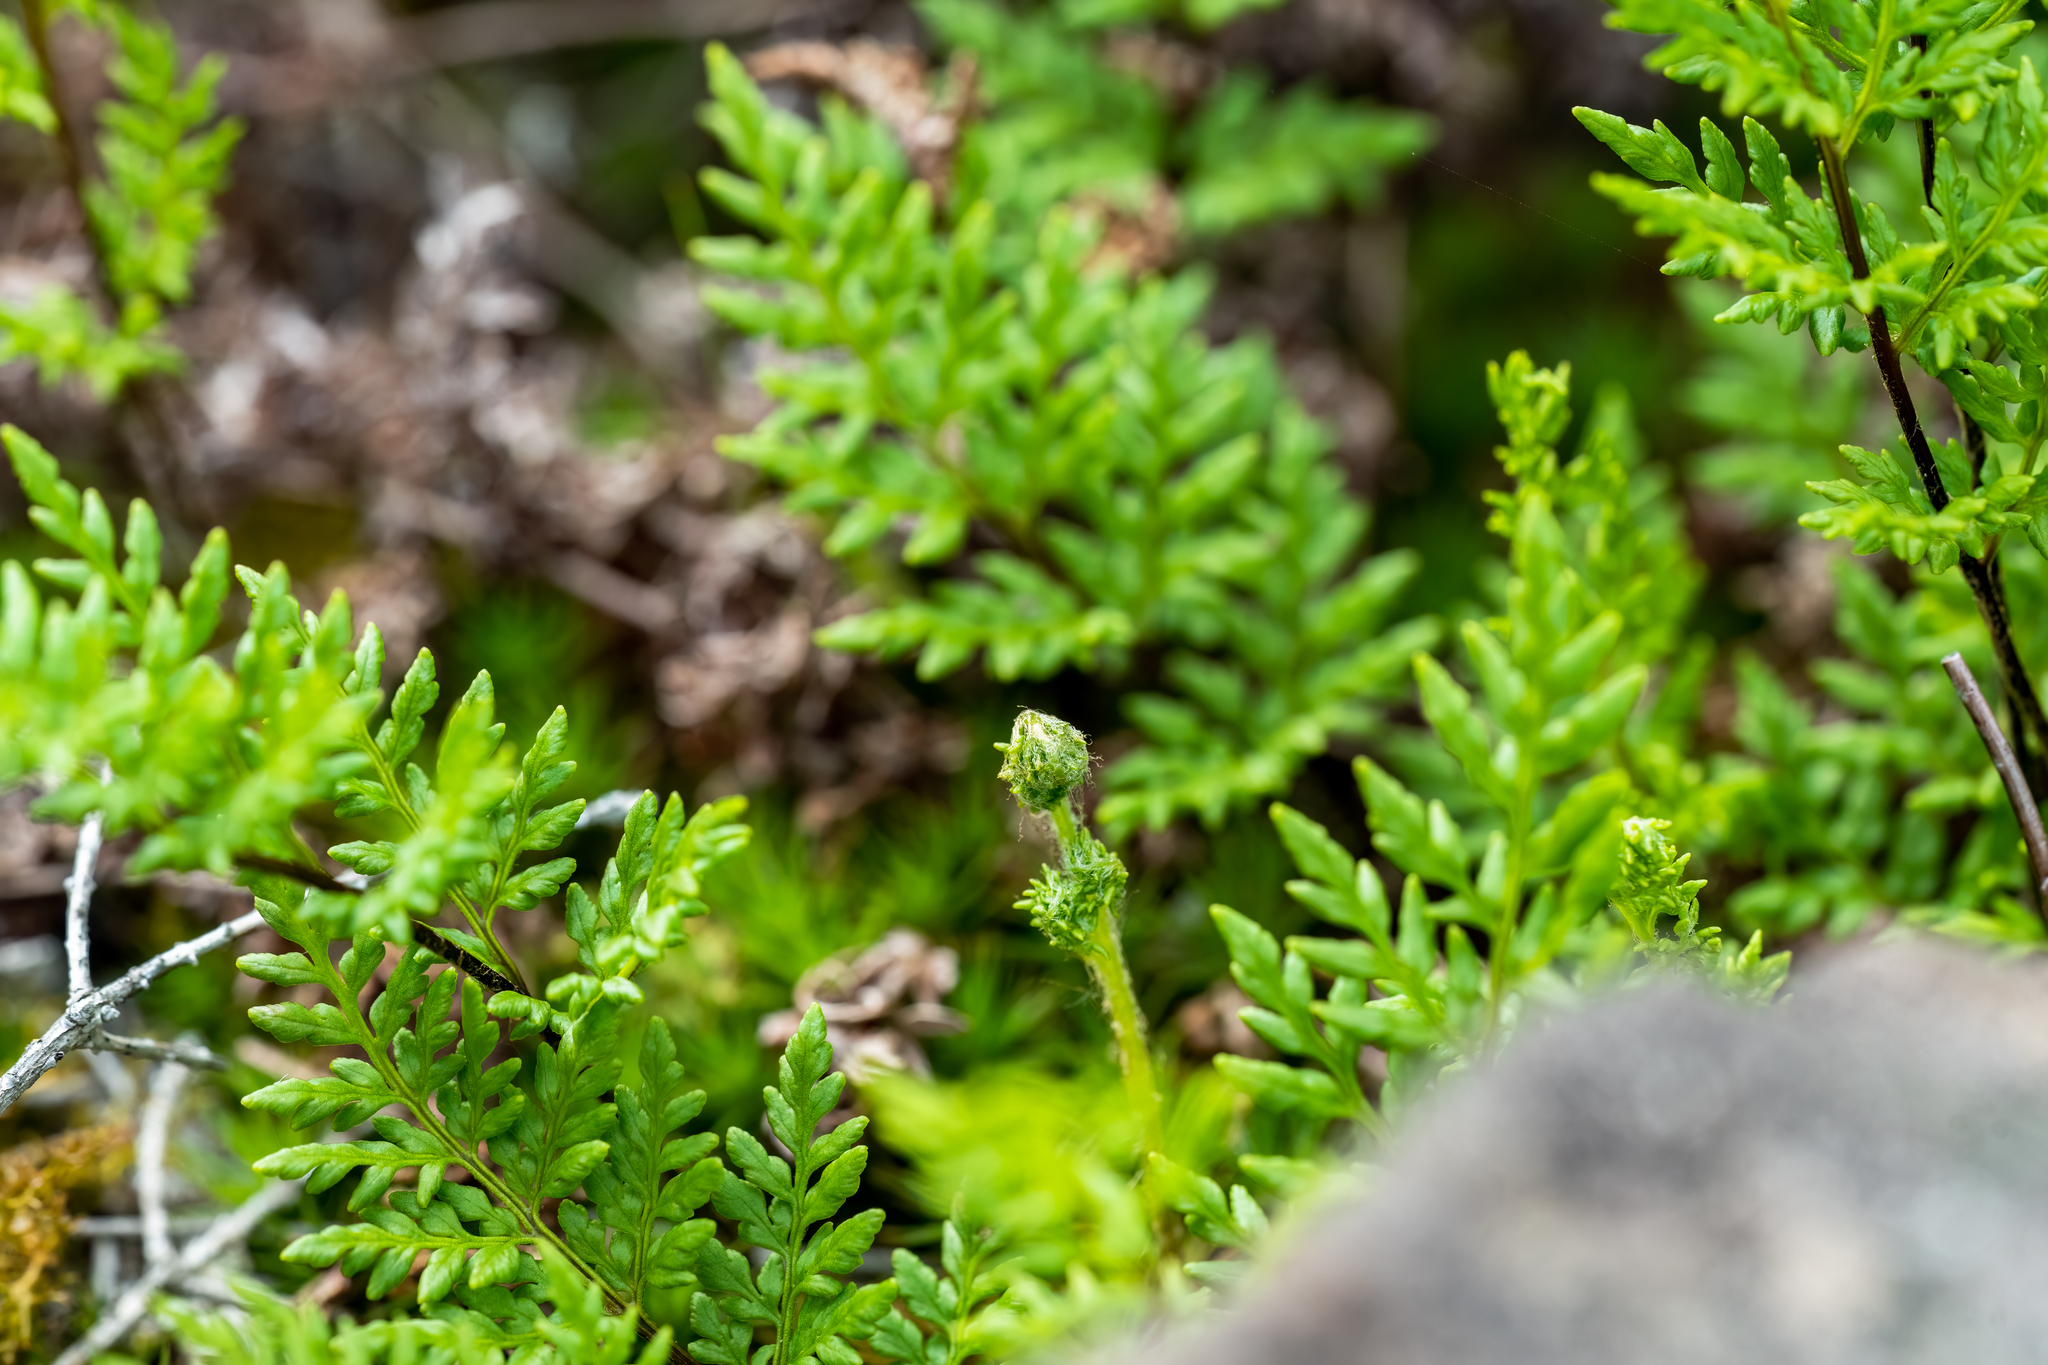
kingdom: Plantae
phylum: Tracheophyta
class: Polypodiopsida
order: Polypodiales
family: Pteridaceae
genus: Cheilanthes
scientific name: Cheilanthes austrotenuifolia
